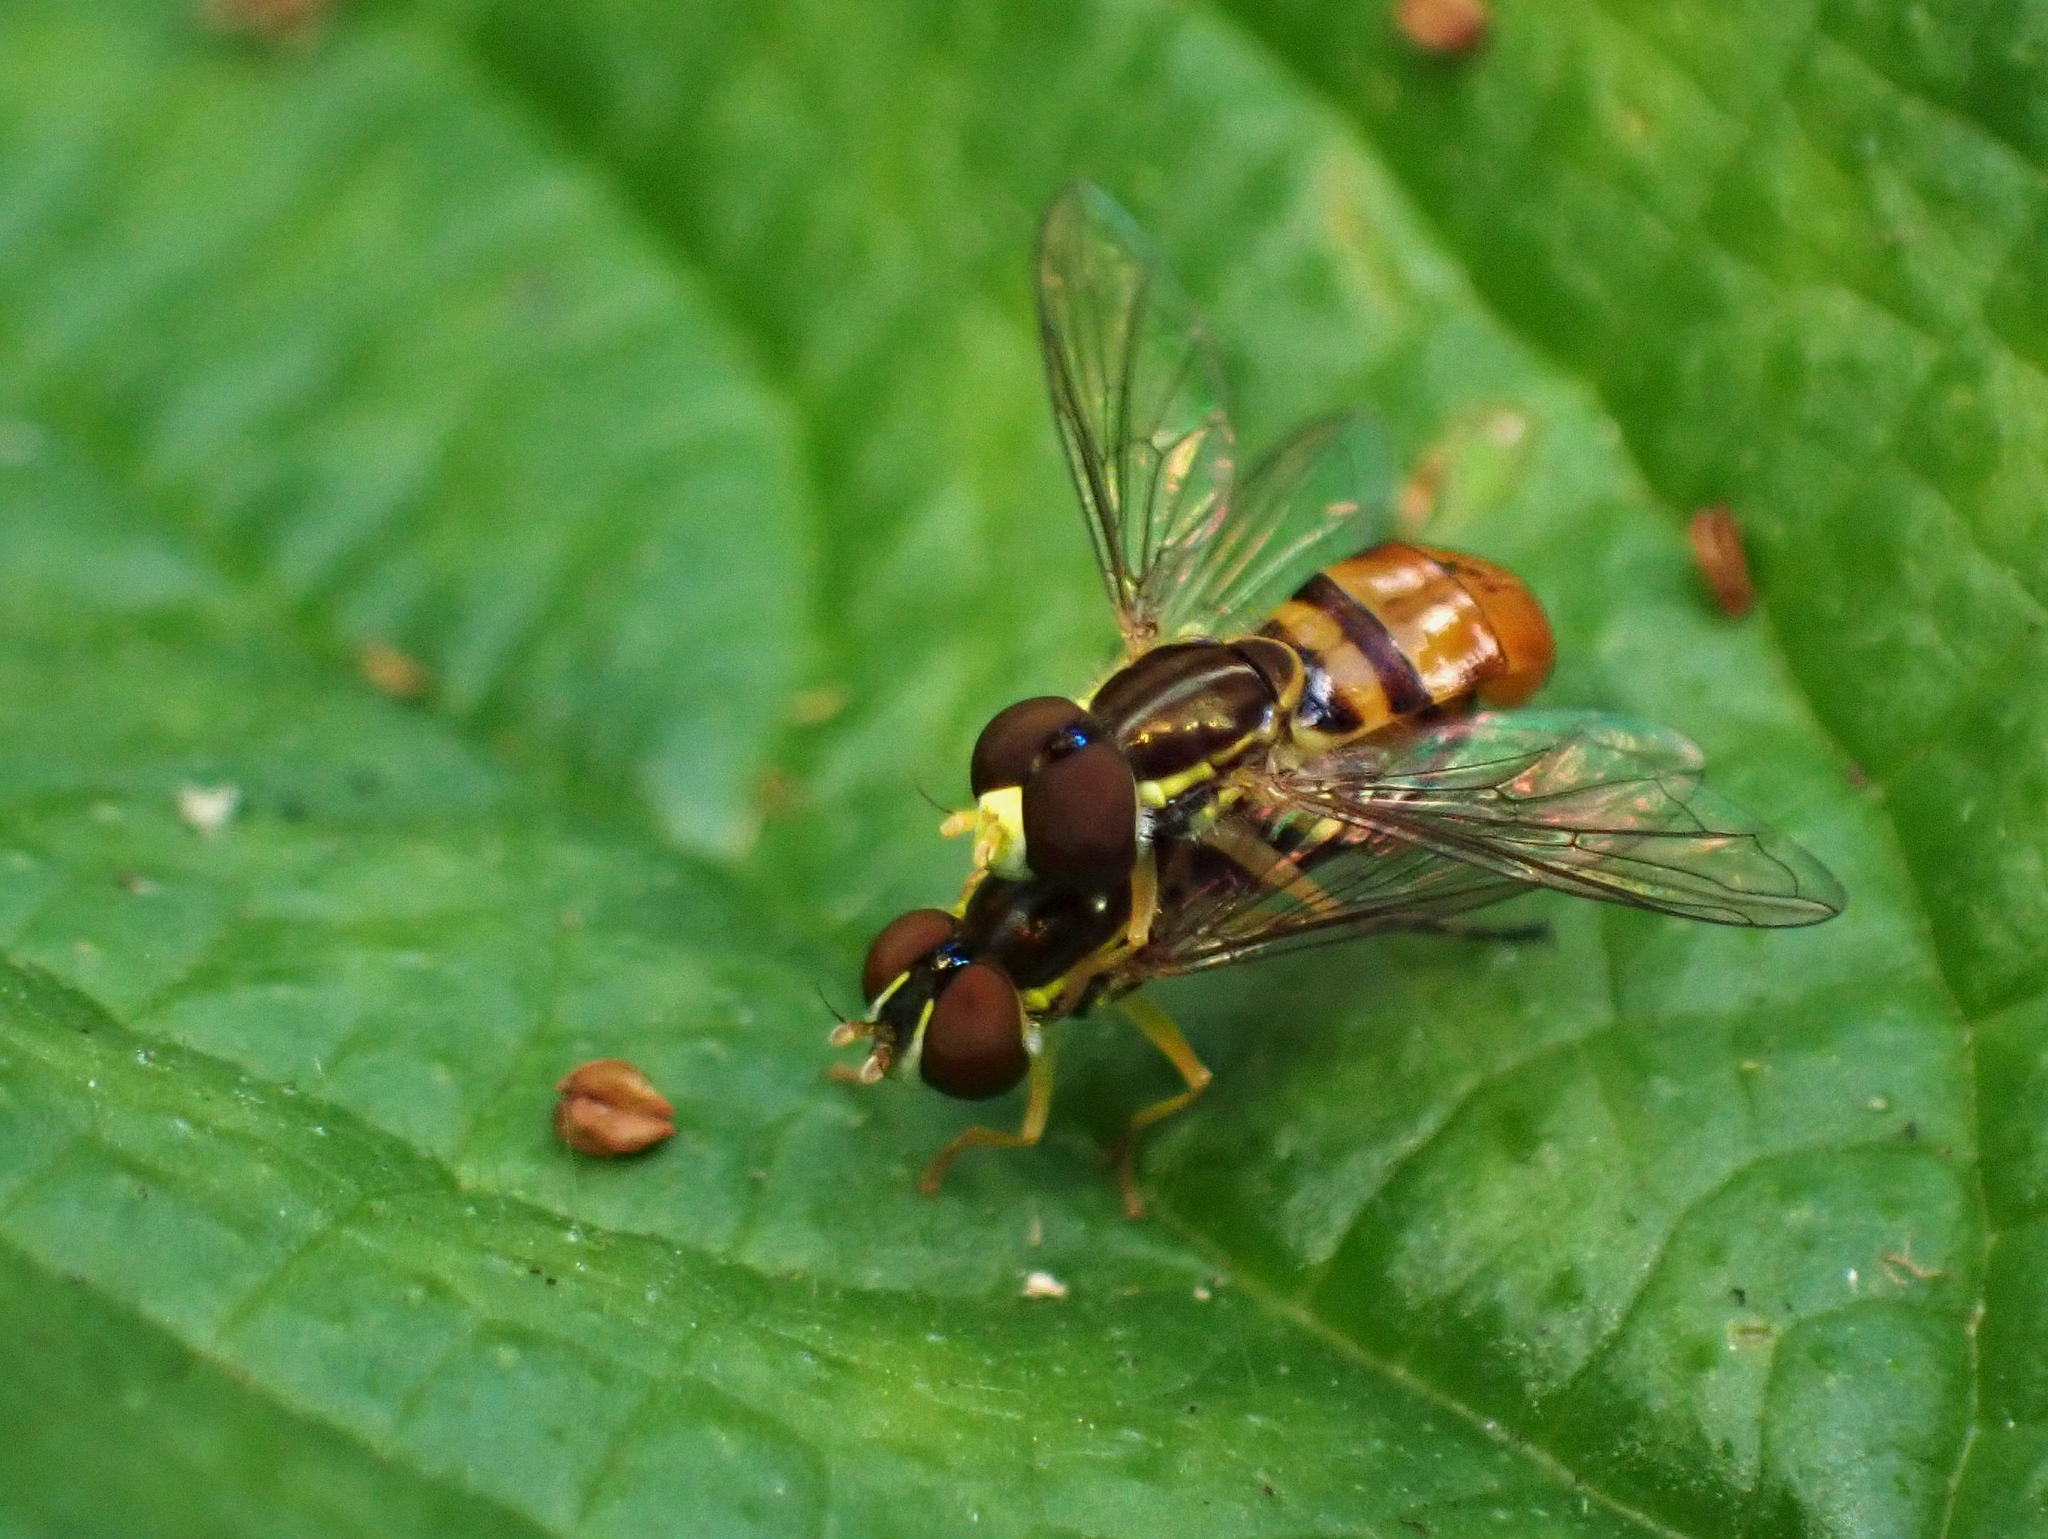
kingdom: Animalia
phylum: Arthropoda
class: Insecta
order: Diptera
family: Syrphidae
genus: Toxomerus
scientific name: Toxomerus floralis
